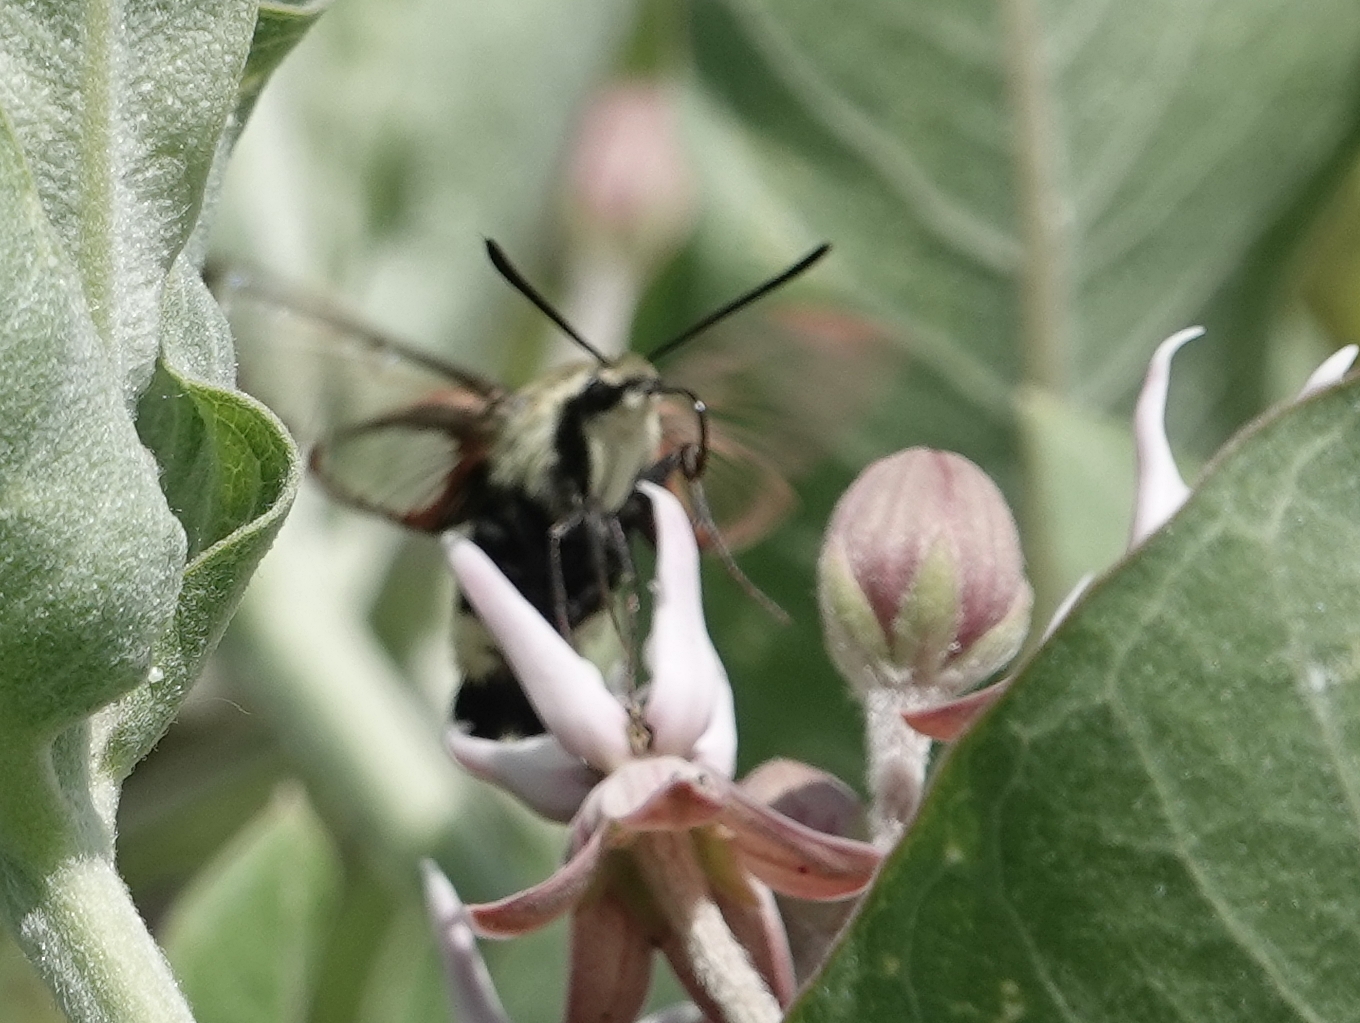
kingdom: Animalia
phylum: Arthropoda
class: Insecta
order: Lepidoptera
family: Sphingidae
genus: Hemaris
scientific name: Hemaris diffinis
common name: Bumblebee moth
